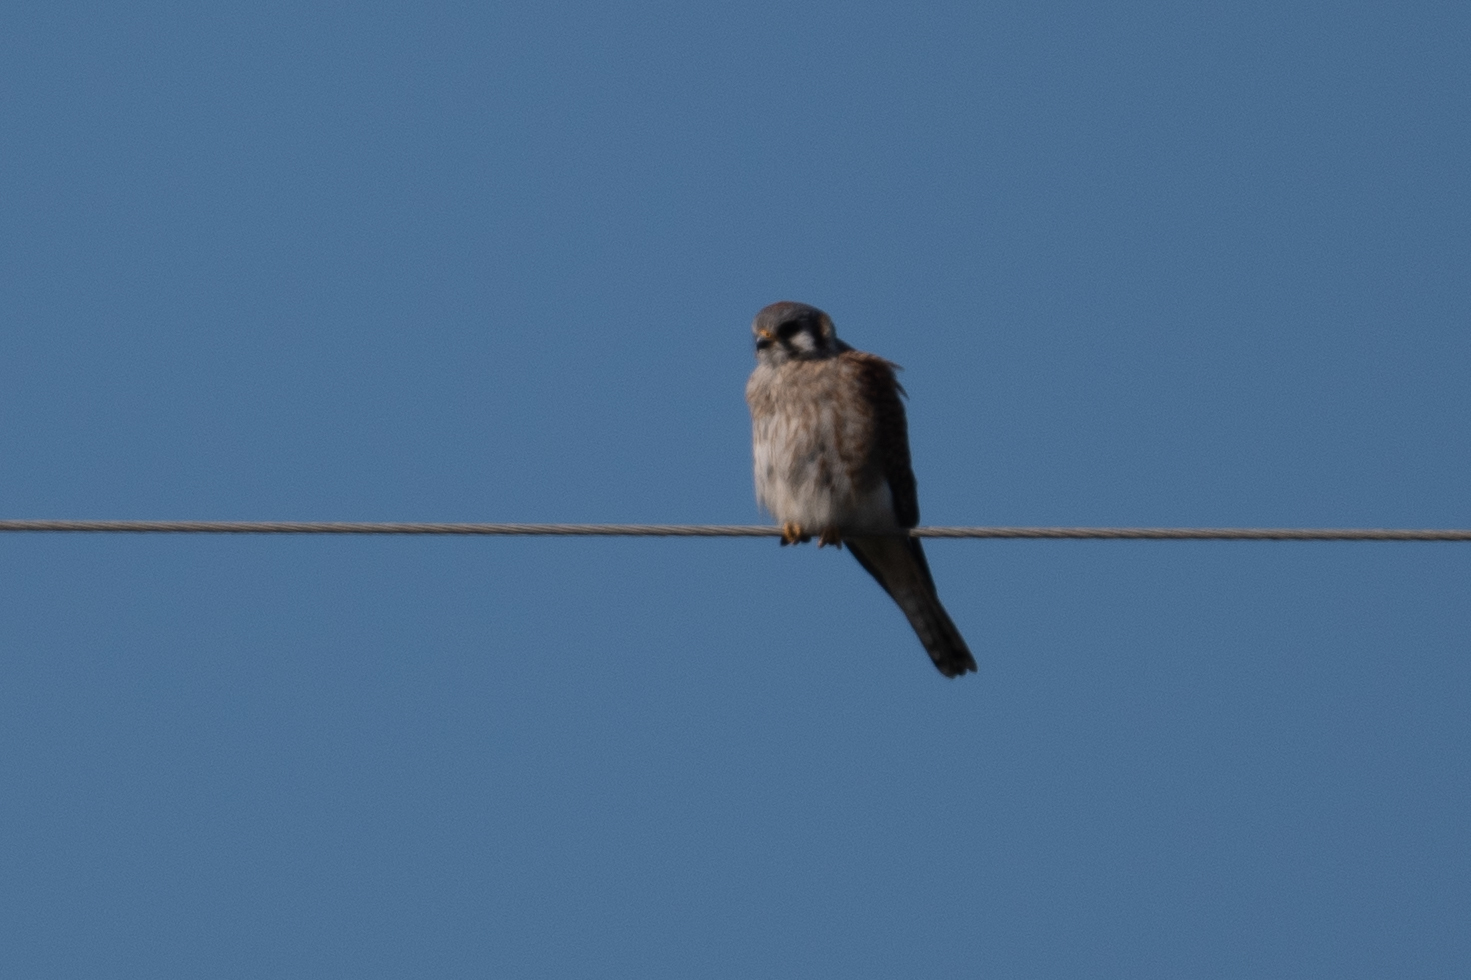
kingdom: Animalia
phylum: Chordata
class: Aves
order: Falconiformes
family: Falconidae
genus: Falco
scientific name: Falco sparverius
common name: American kestrel
